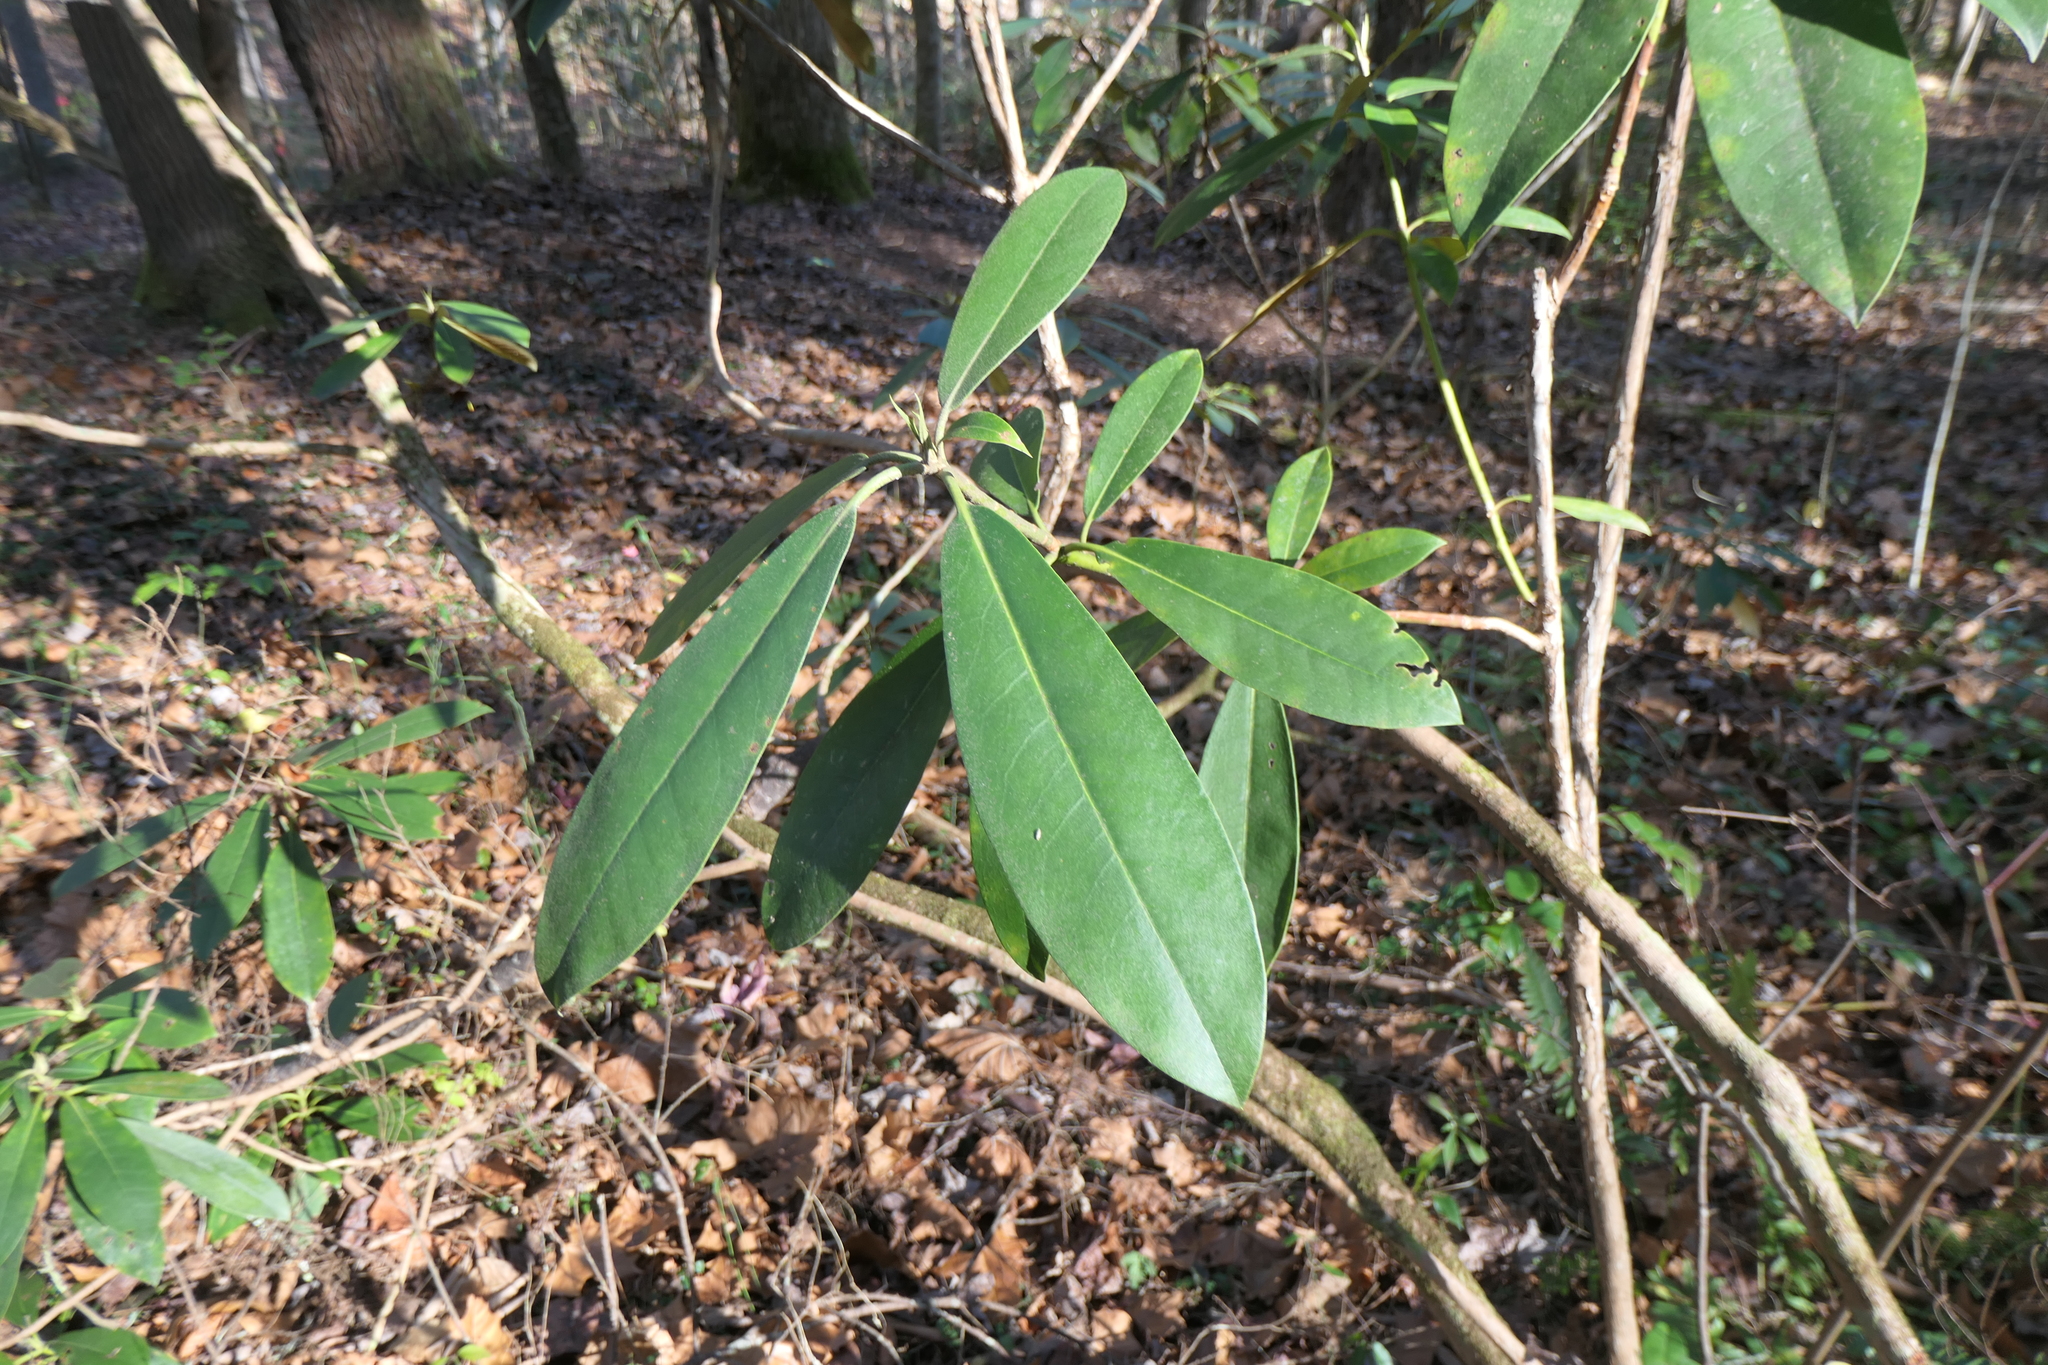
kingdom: Plantae
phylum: Tracheophyta
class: Magnoliopsida
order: Ericales
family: Ericaceae
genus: Rhododendron
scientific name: Rhododendron maximum
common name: Great rhododendron
